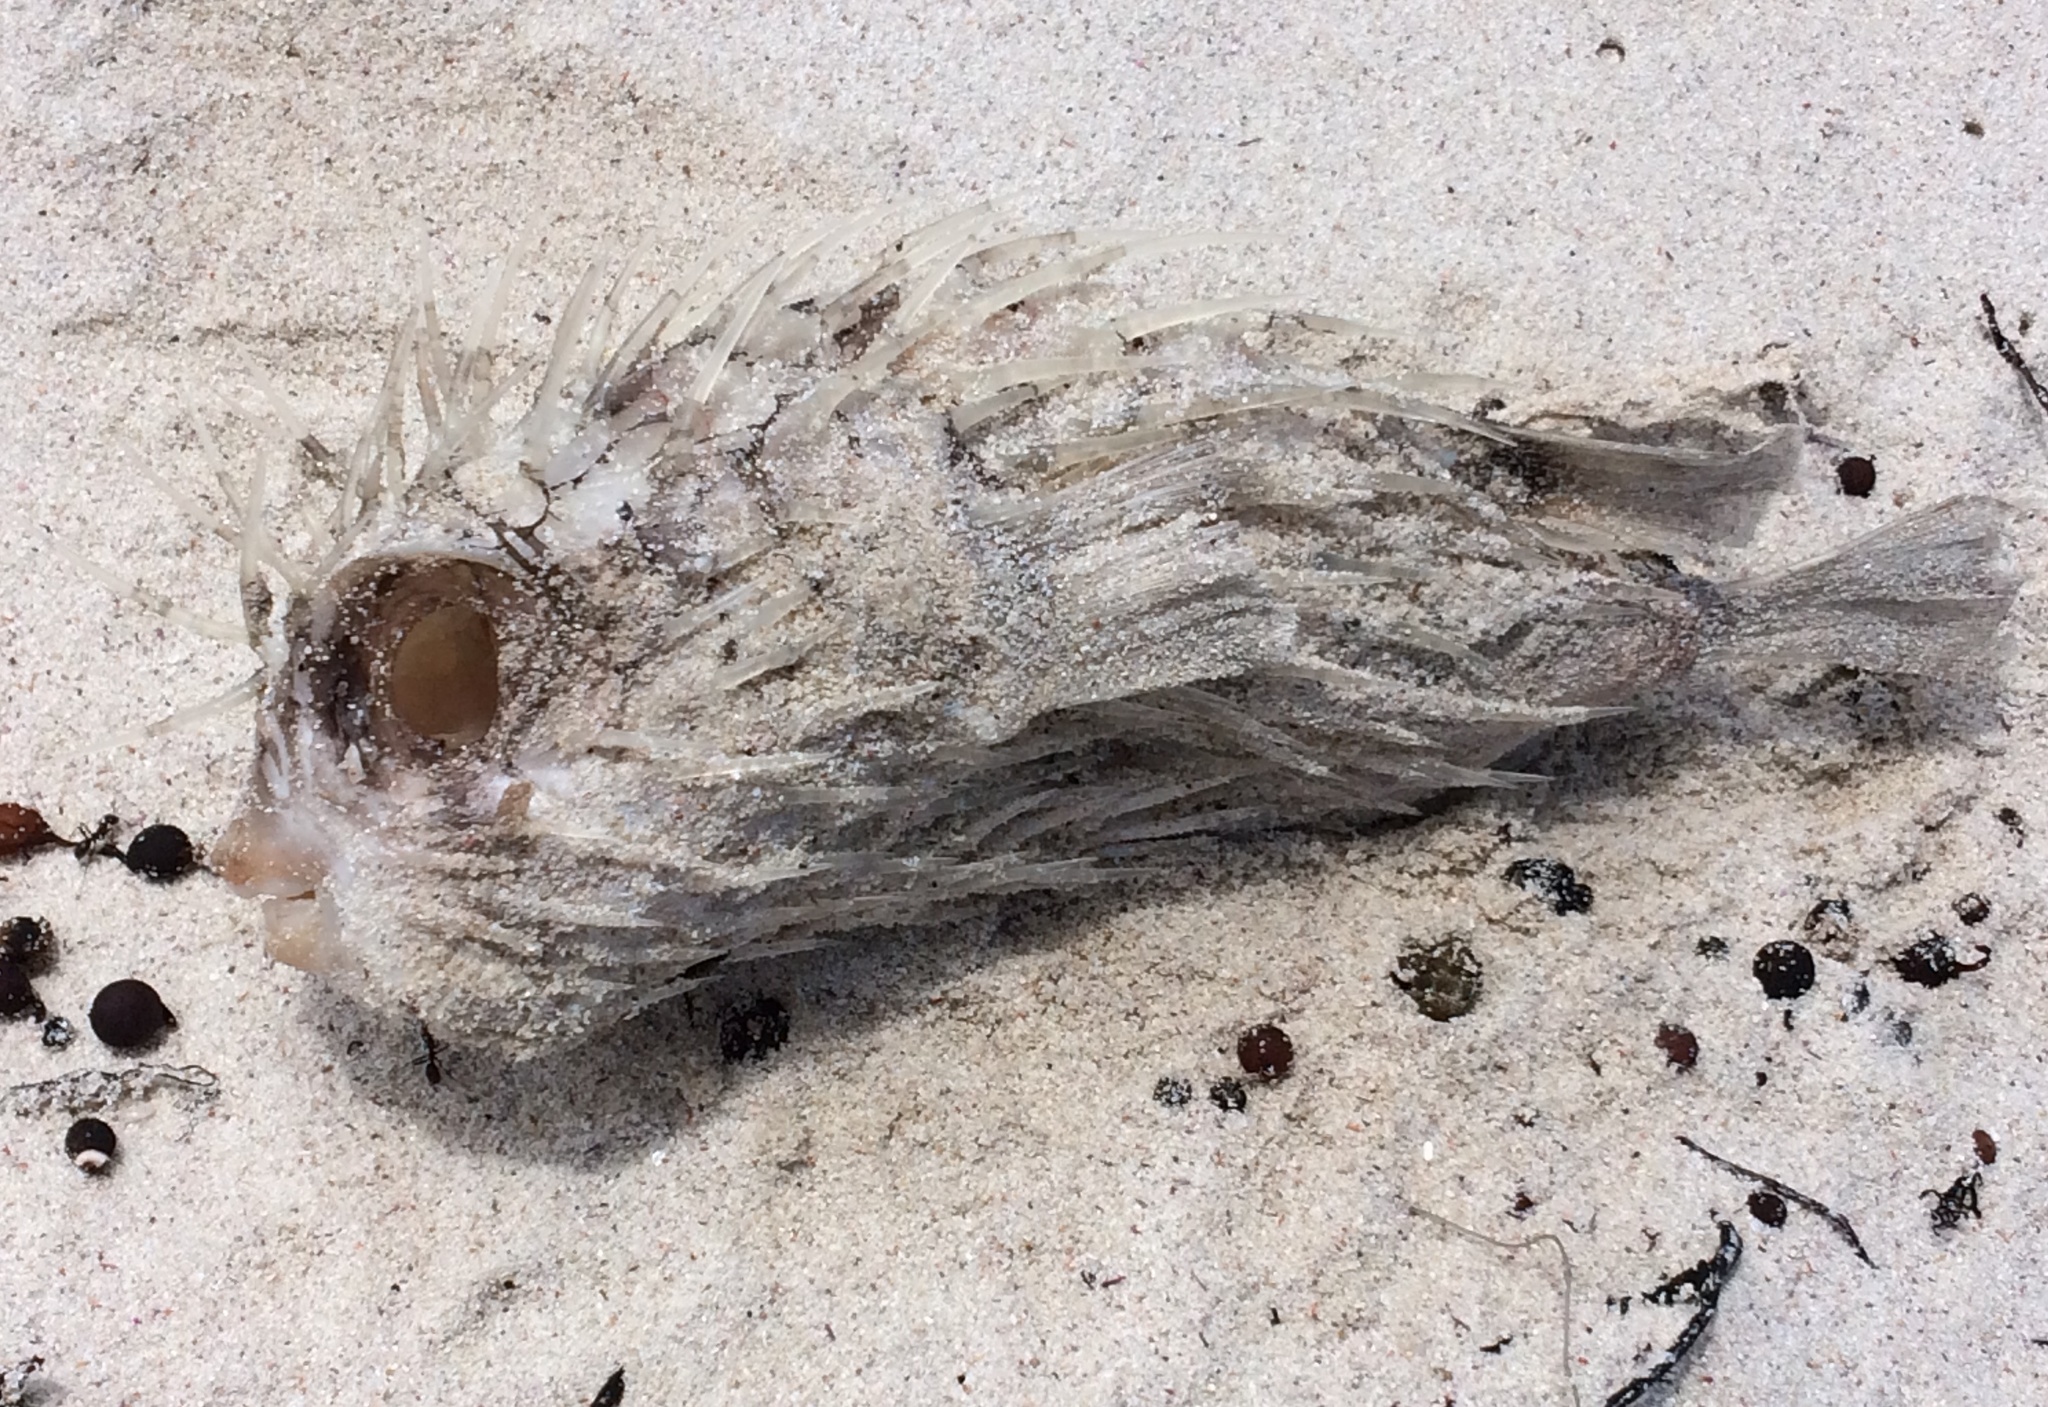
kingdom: Animalia
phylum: Chordata
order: Tetraodontiformes
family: Diodontidae
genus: Diodon
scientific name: Diodon nicthemerus
